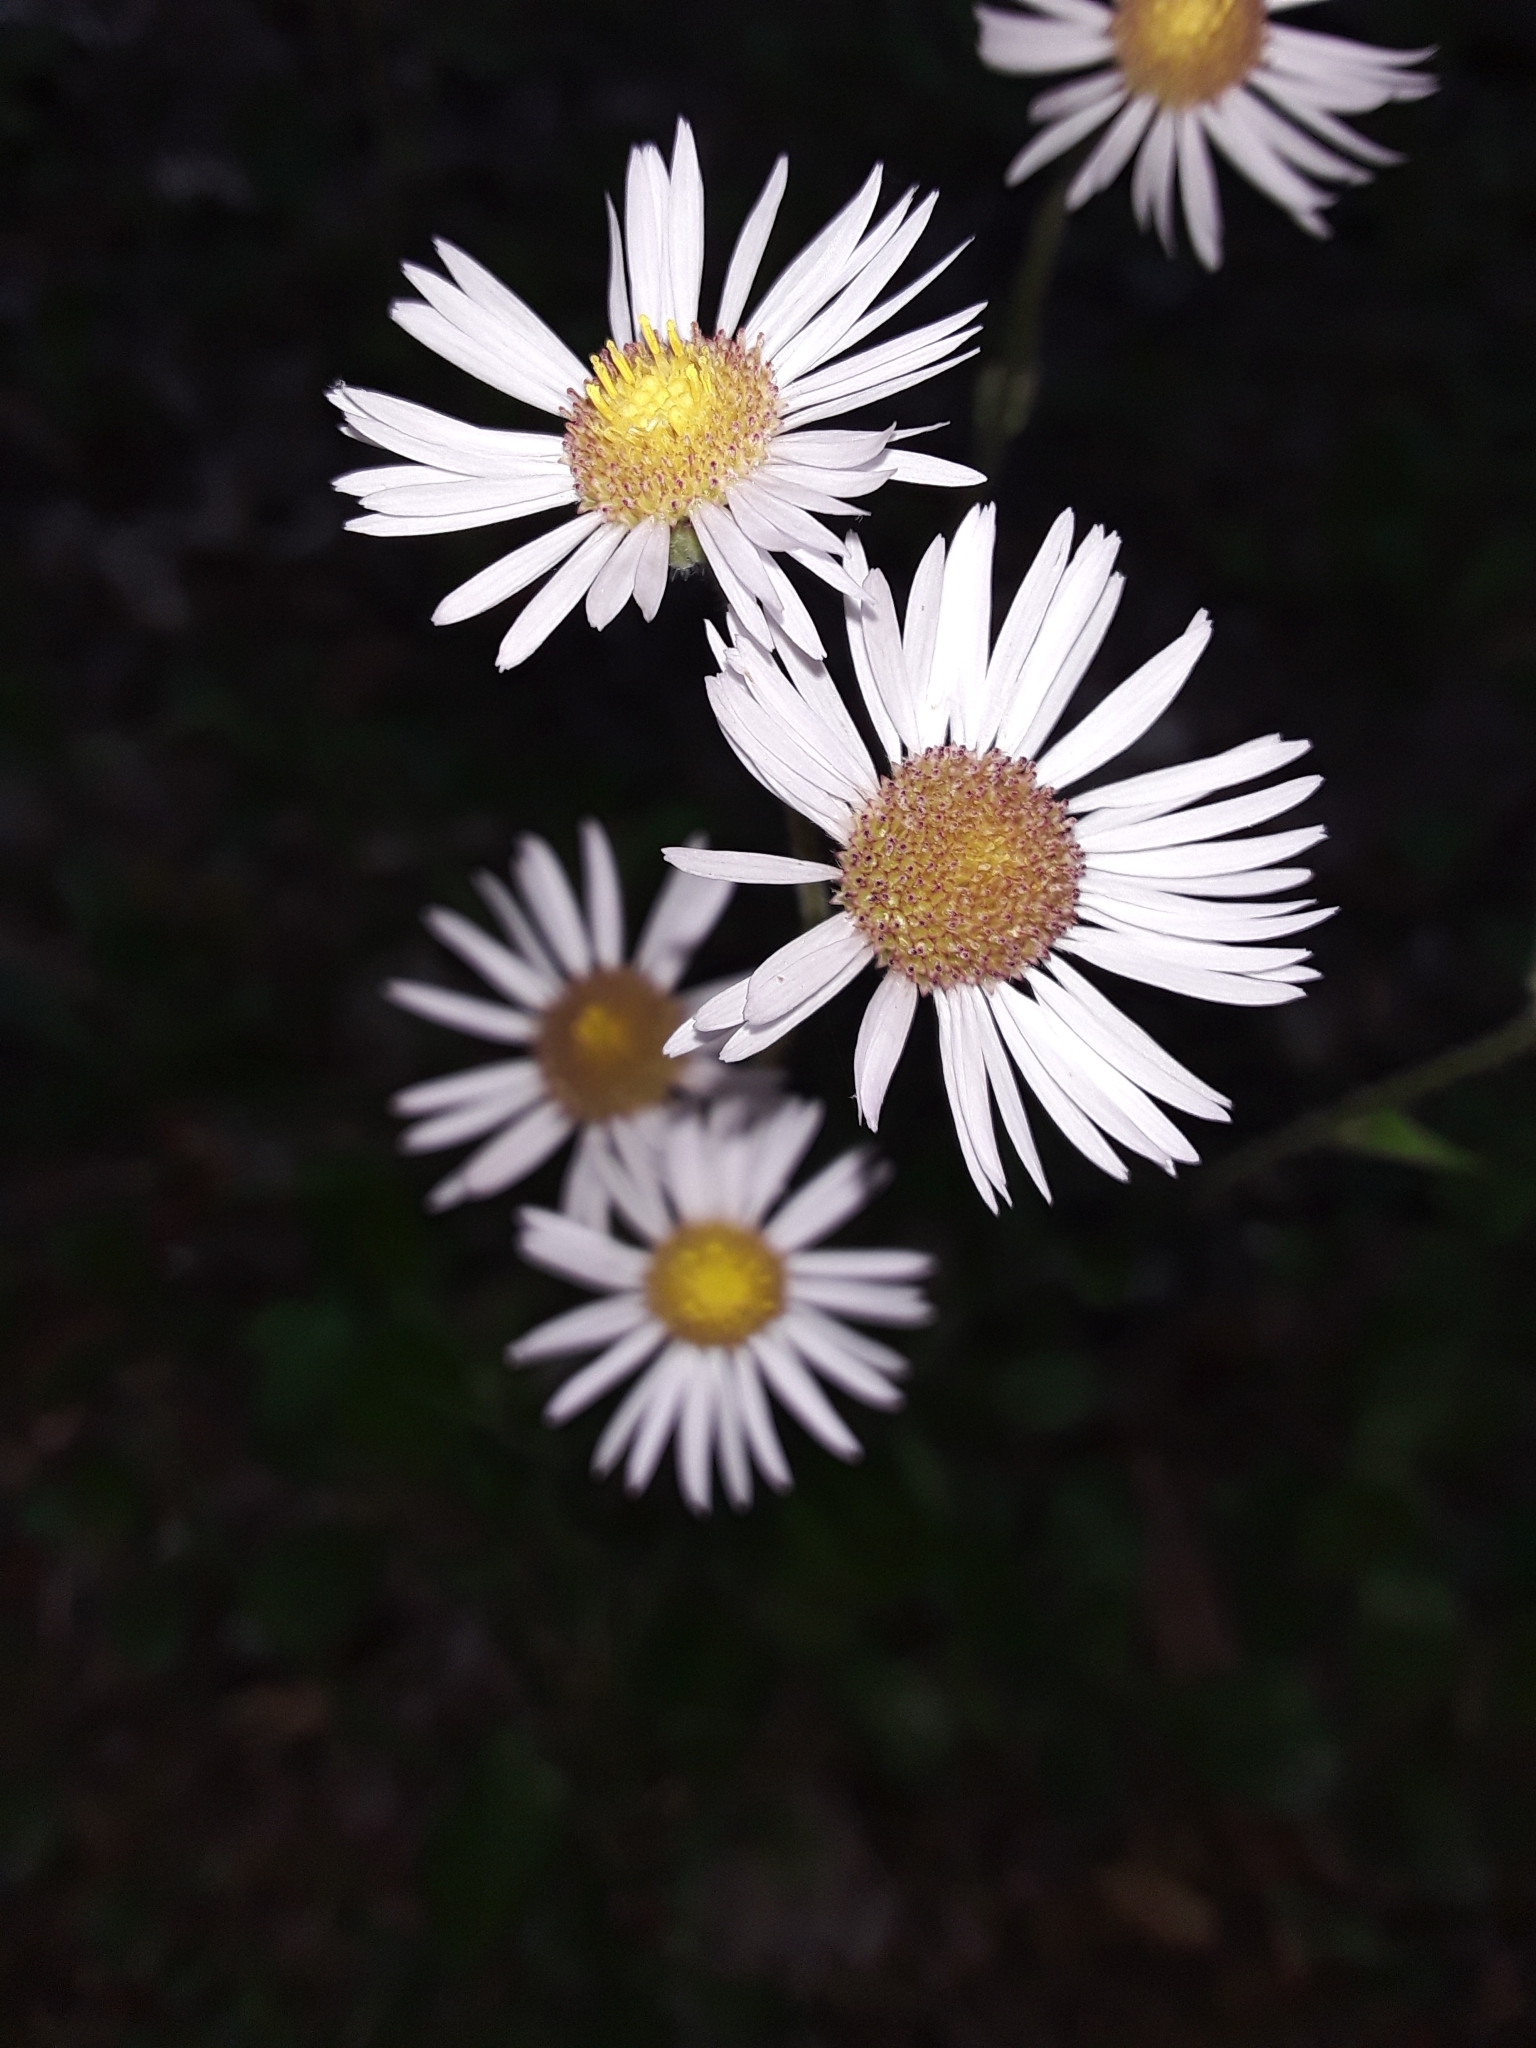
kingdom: Plantae
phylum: Tracheophyta
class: Magnoliopsida
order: Asterales
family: Asteraceae
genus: Erigeron
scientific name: Erigeron pulchellus
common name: Hairy fleabane
